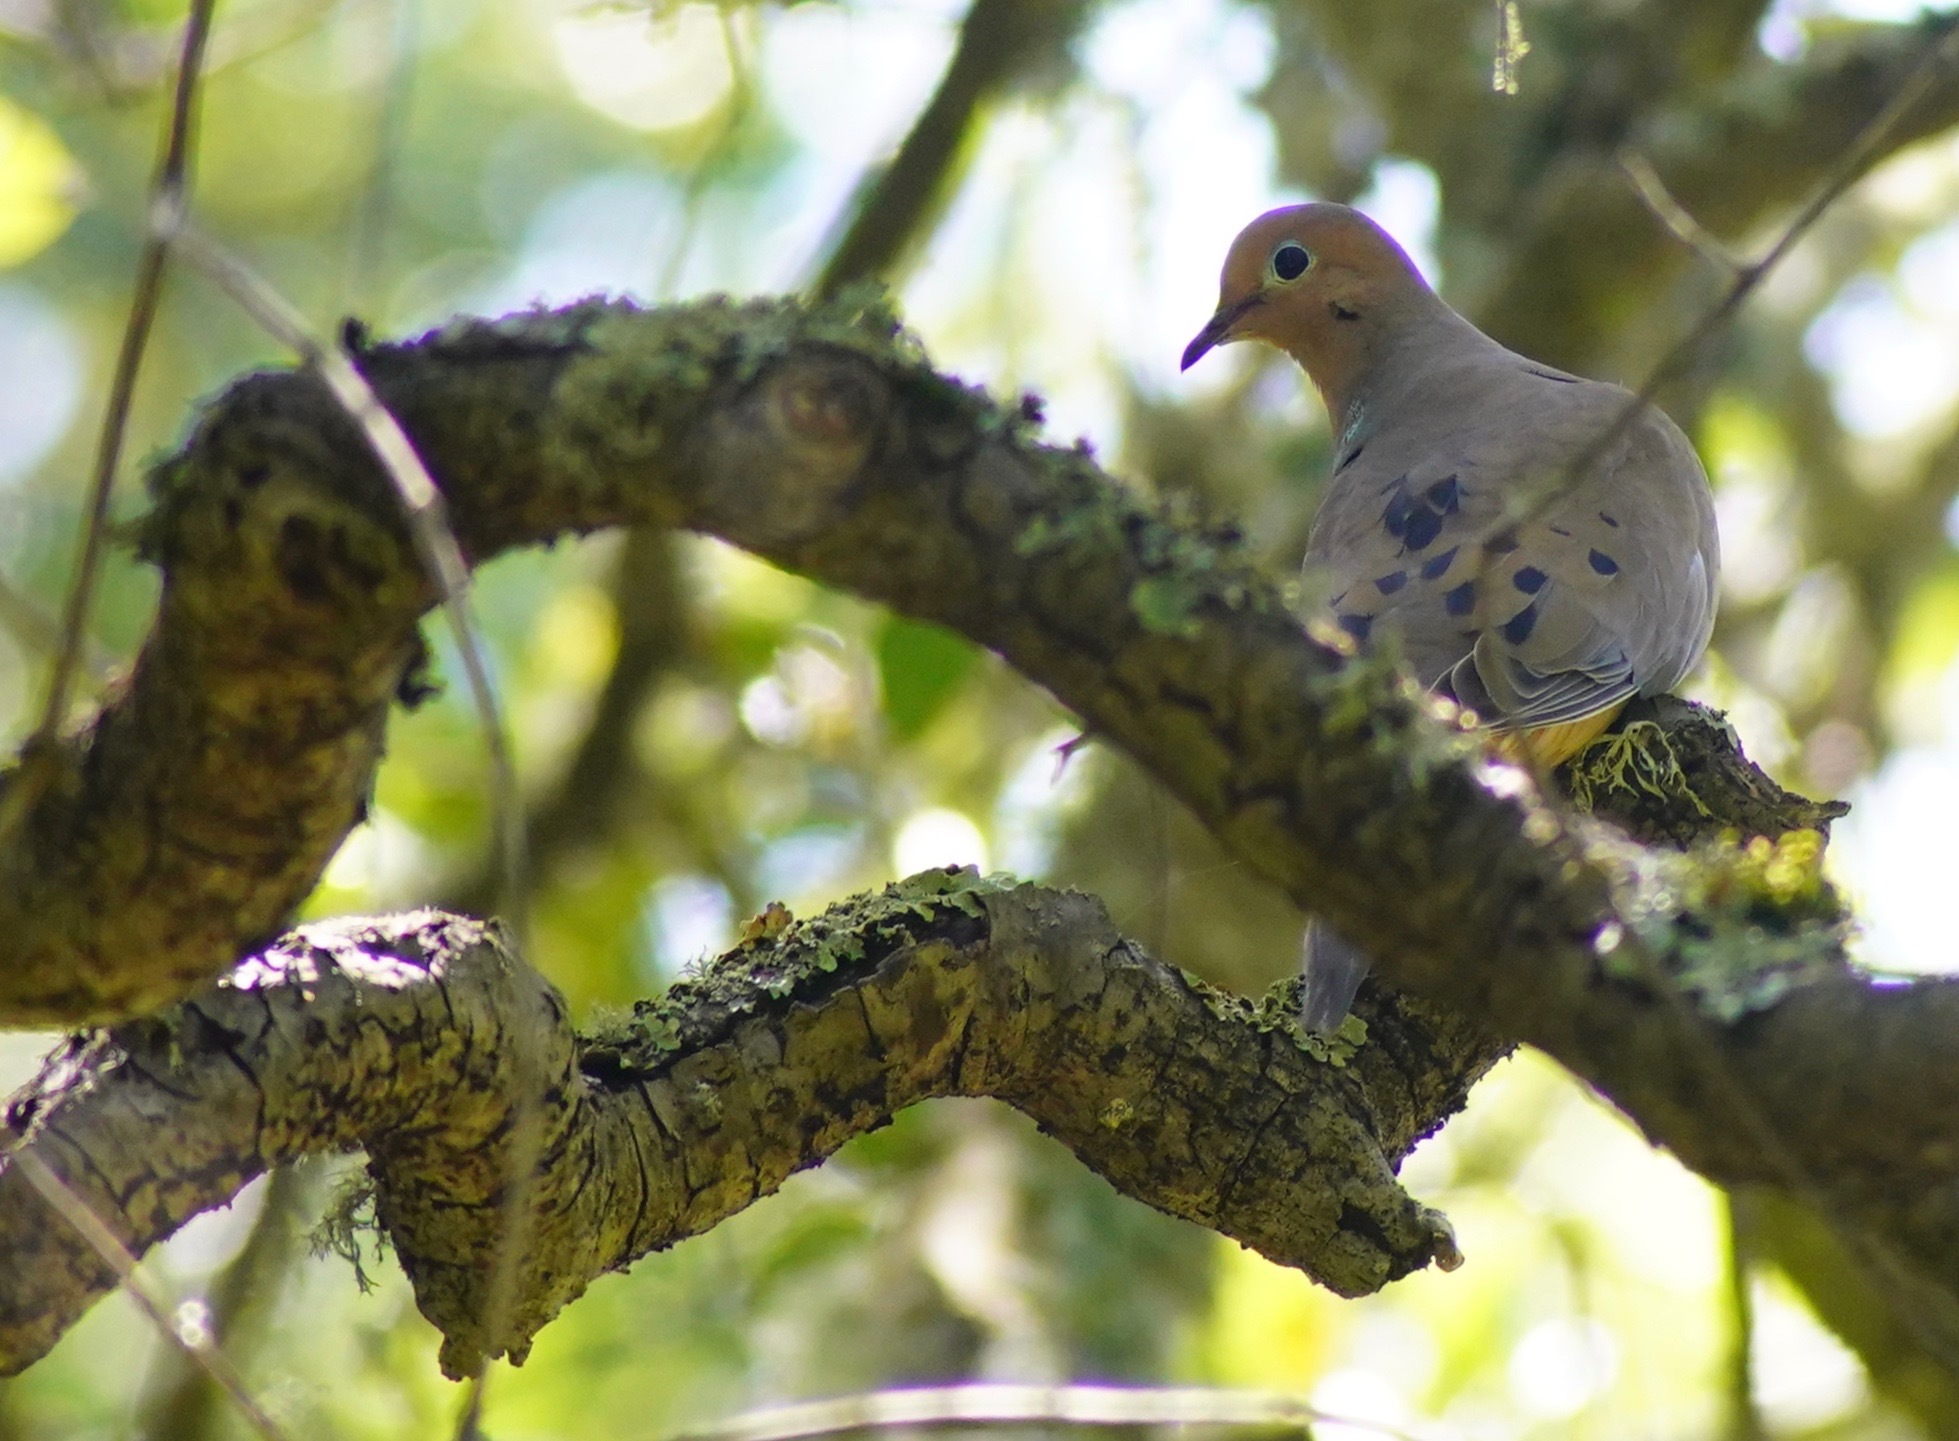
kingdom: Animalia
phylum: Chordata
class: Aves
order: Columbiformes
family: Columbidae
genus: Zenaida
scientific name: Zenaida macroura
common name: Mourning dove
